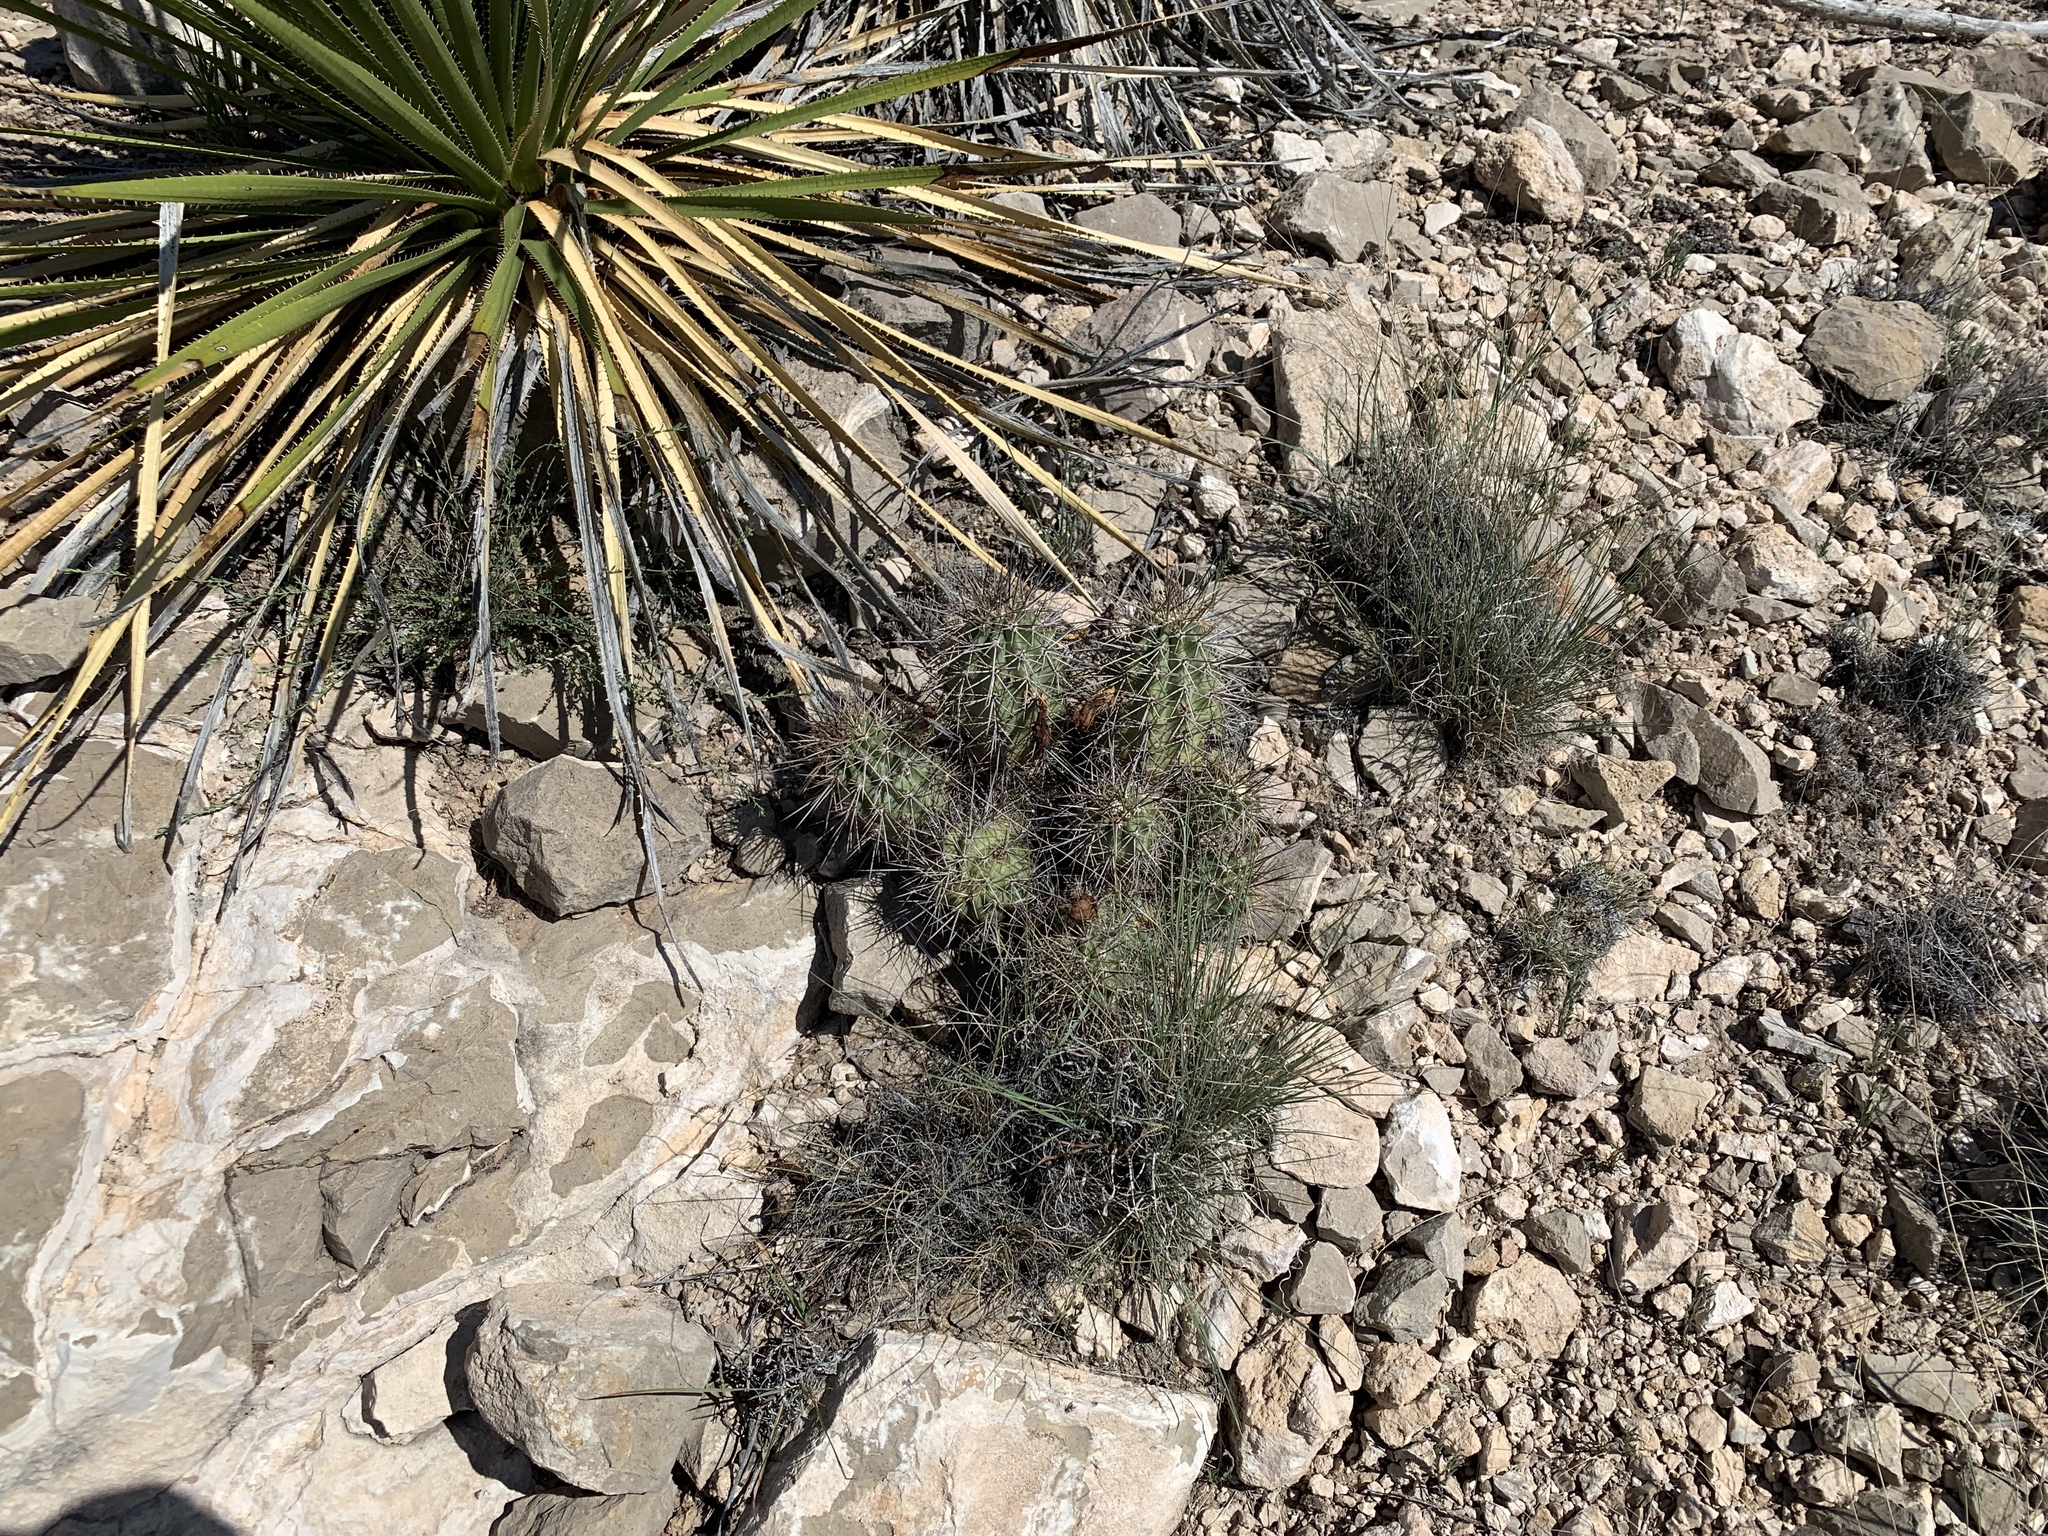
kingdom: Plantae
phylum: Tracheophyta
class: Magnoliopsida
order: Caryophyllales
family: Cactaceae
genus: Echinocereus
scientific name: Echinocereus coccineus
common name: Scarlet hedgehog cactus
